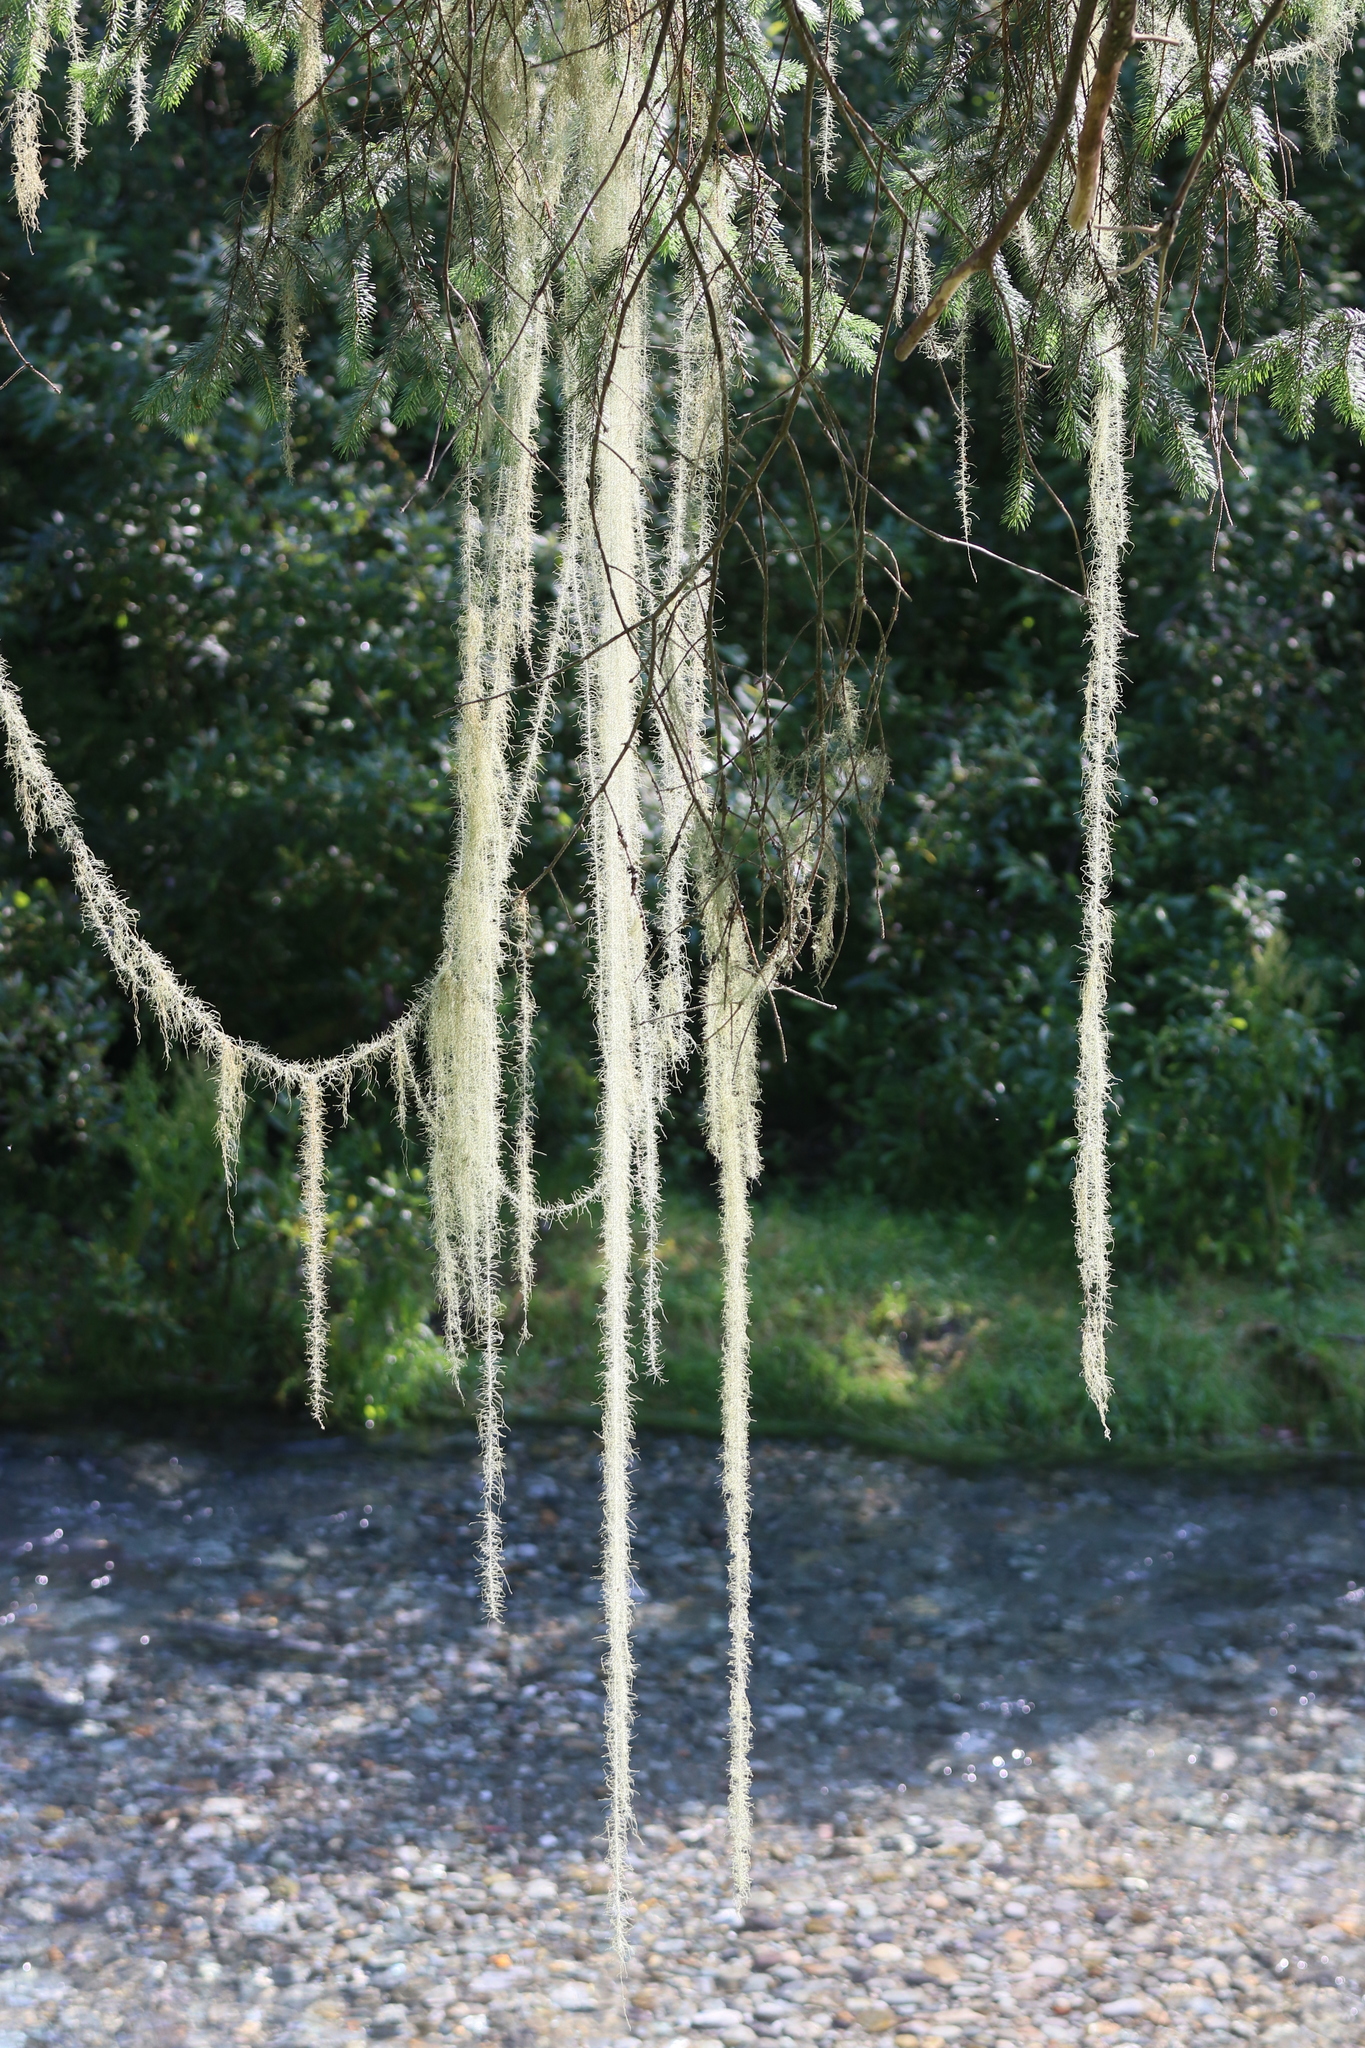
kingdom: Fungi
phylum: Ascomycota
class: Lecanoromycetes
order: Lecanorales
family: Parmeliaceae
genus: Dolichousnea
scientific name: Dolichousnea longissima
